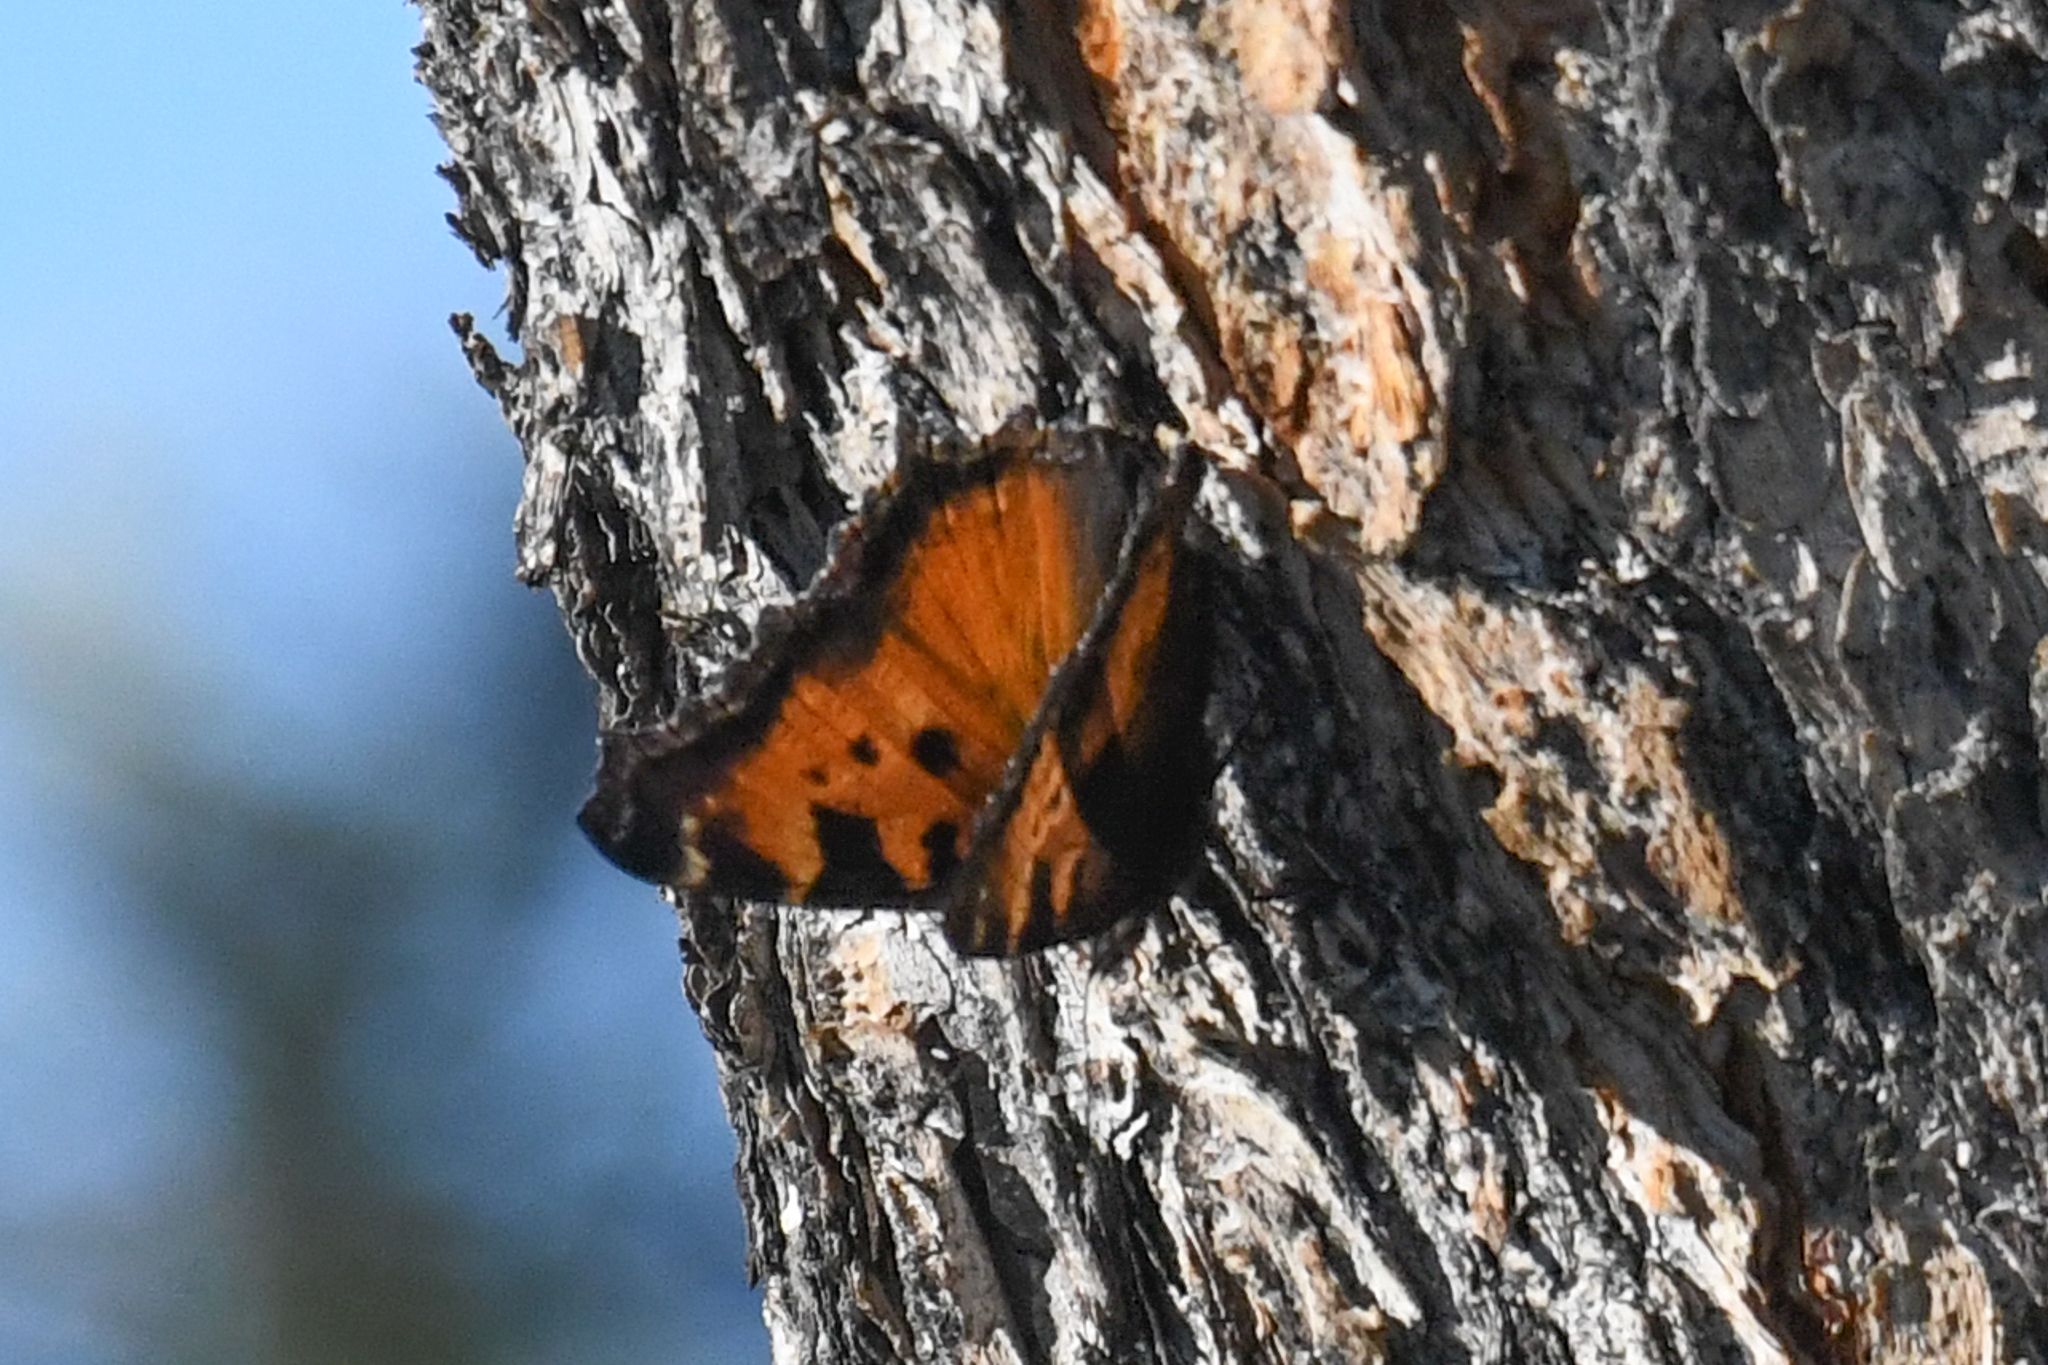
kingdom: Animalia
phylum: Arthropoda
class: Insecta
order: Lepidoptera
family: Nymphalidae
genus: Nymphalis
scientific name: Nymphalis californica
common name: California tortoiseshell
